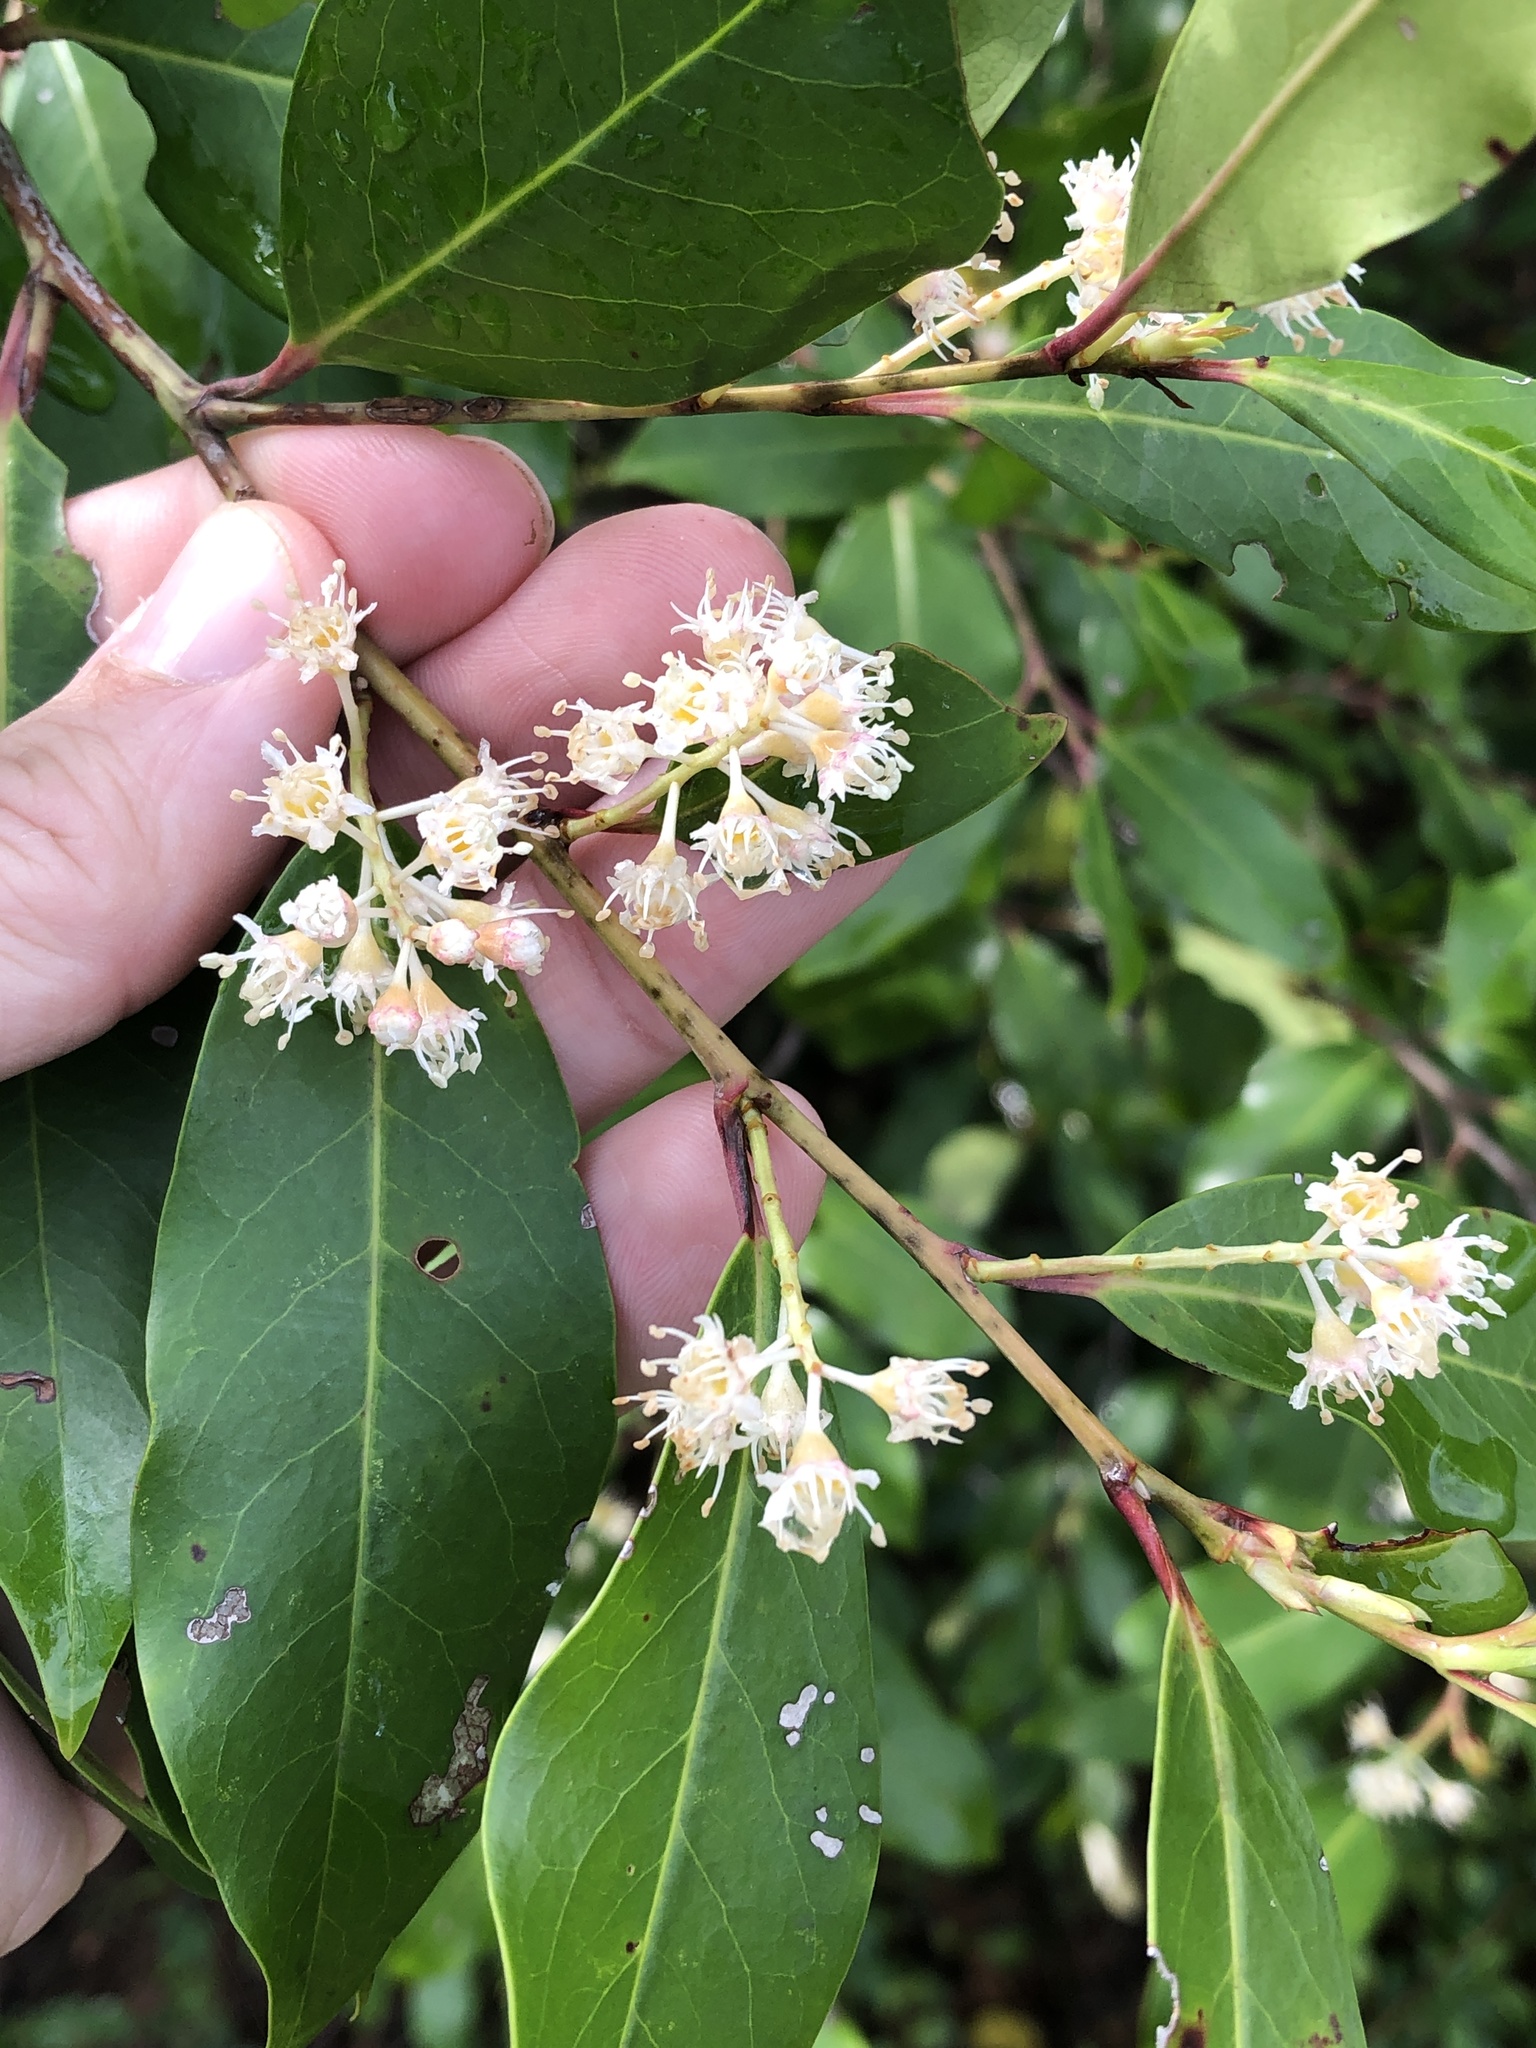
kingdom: Plantae
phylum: Tracheophyta
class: Magnoliopsida
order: Rosales
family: Rosaceae
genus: Prunus
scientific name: Prunus caroliniana
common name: Carolina laurel cherry
